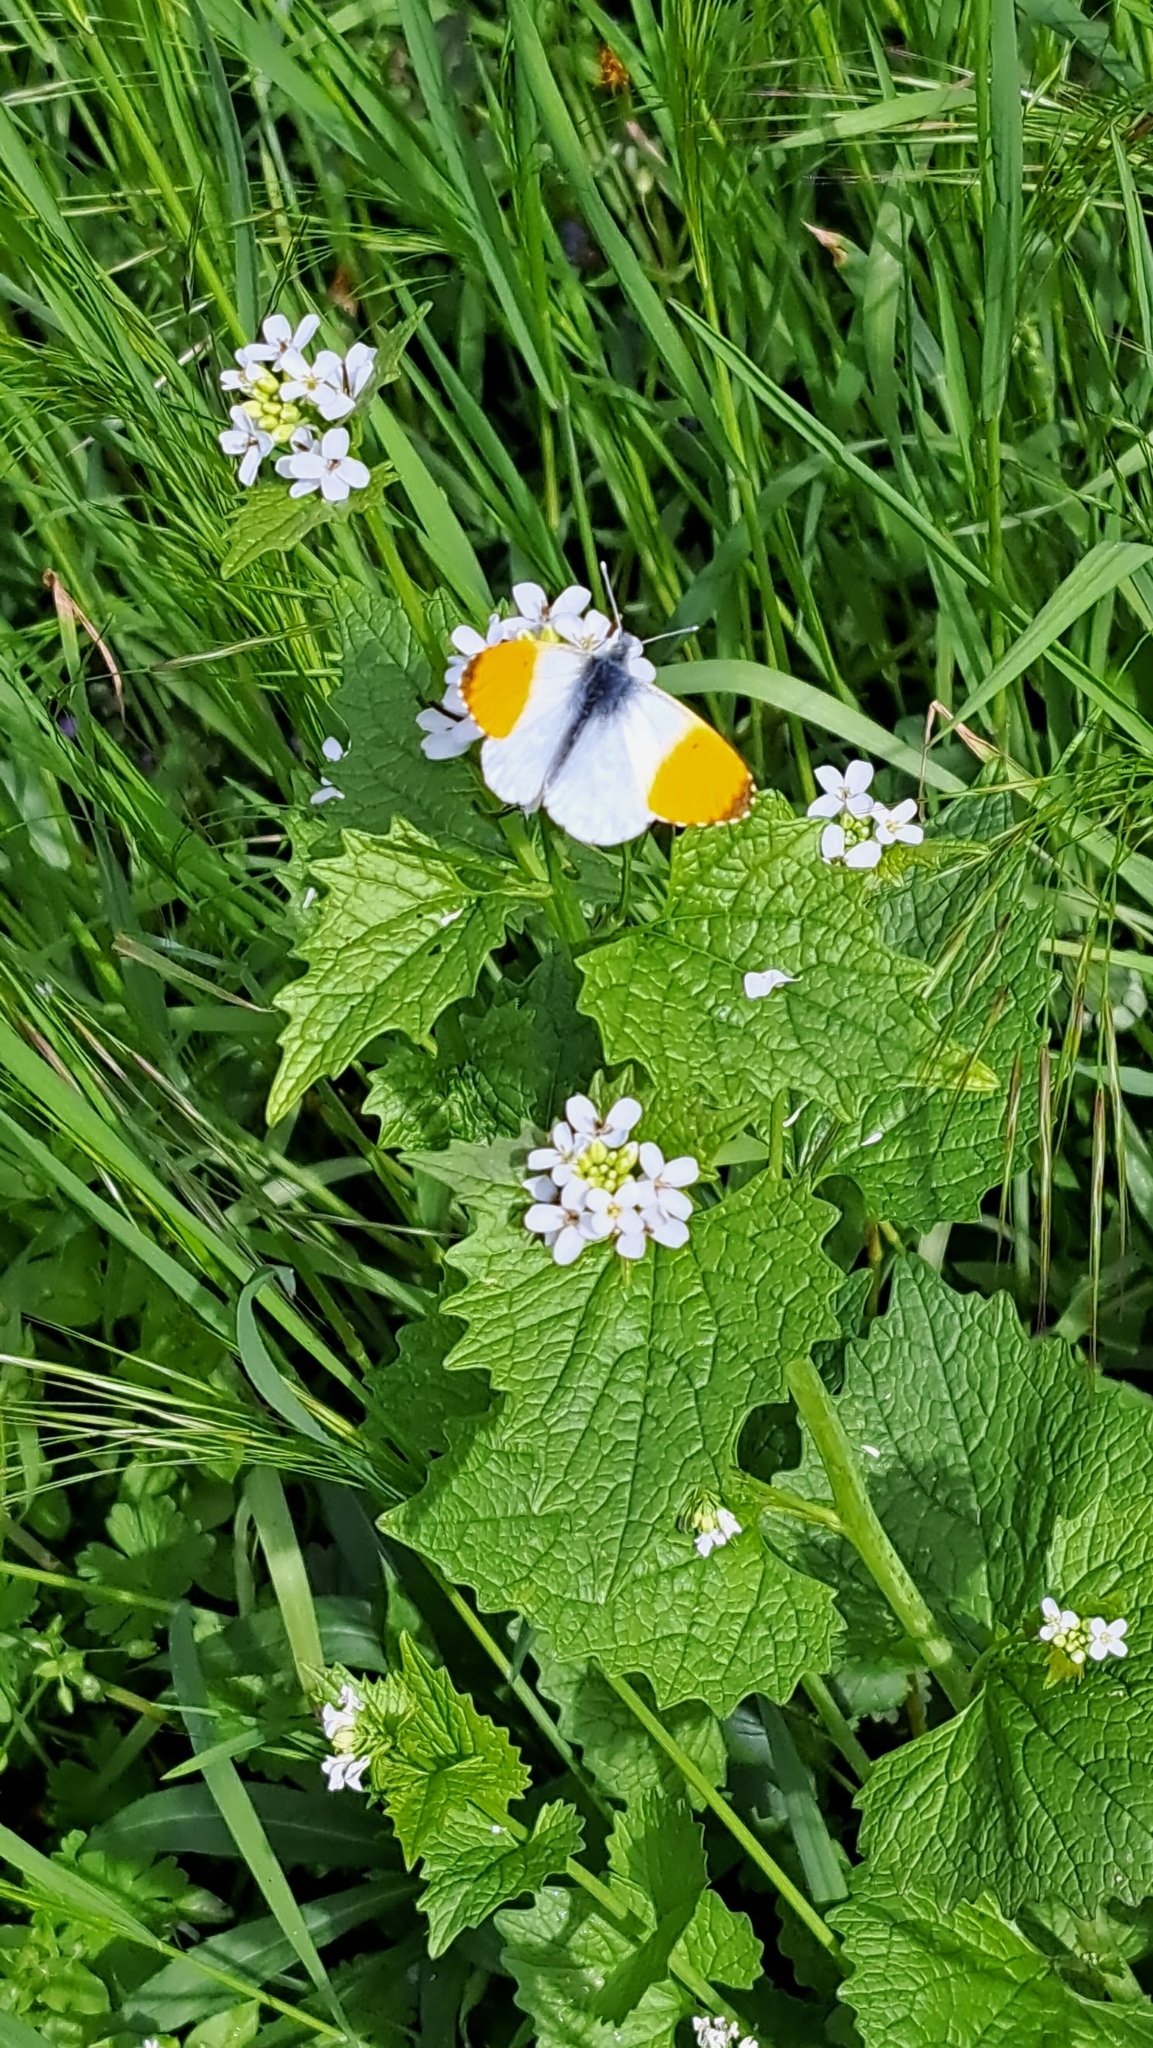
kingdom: Animalia
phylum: Arthropoda
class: Insecta
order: Lepidoptera
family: Pieridae
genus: Anthocharis
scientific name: Anthocharis cardamines
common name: Orange-tip
